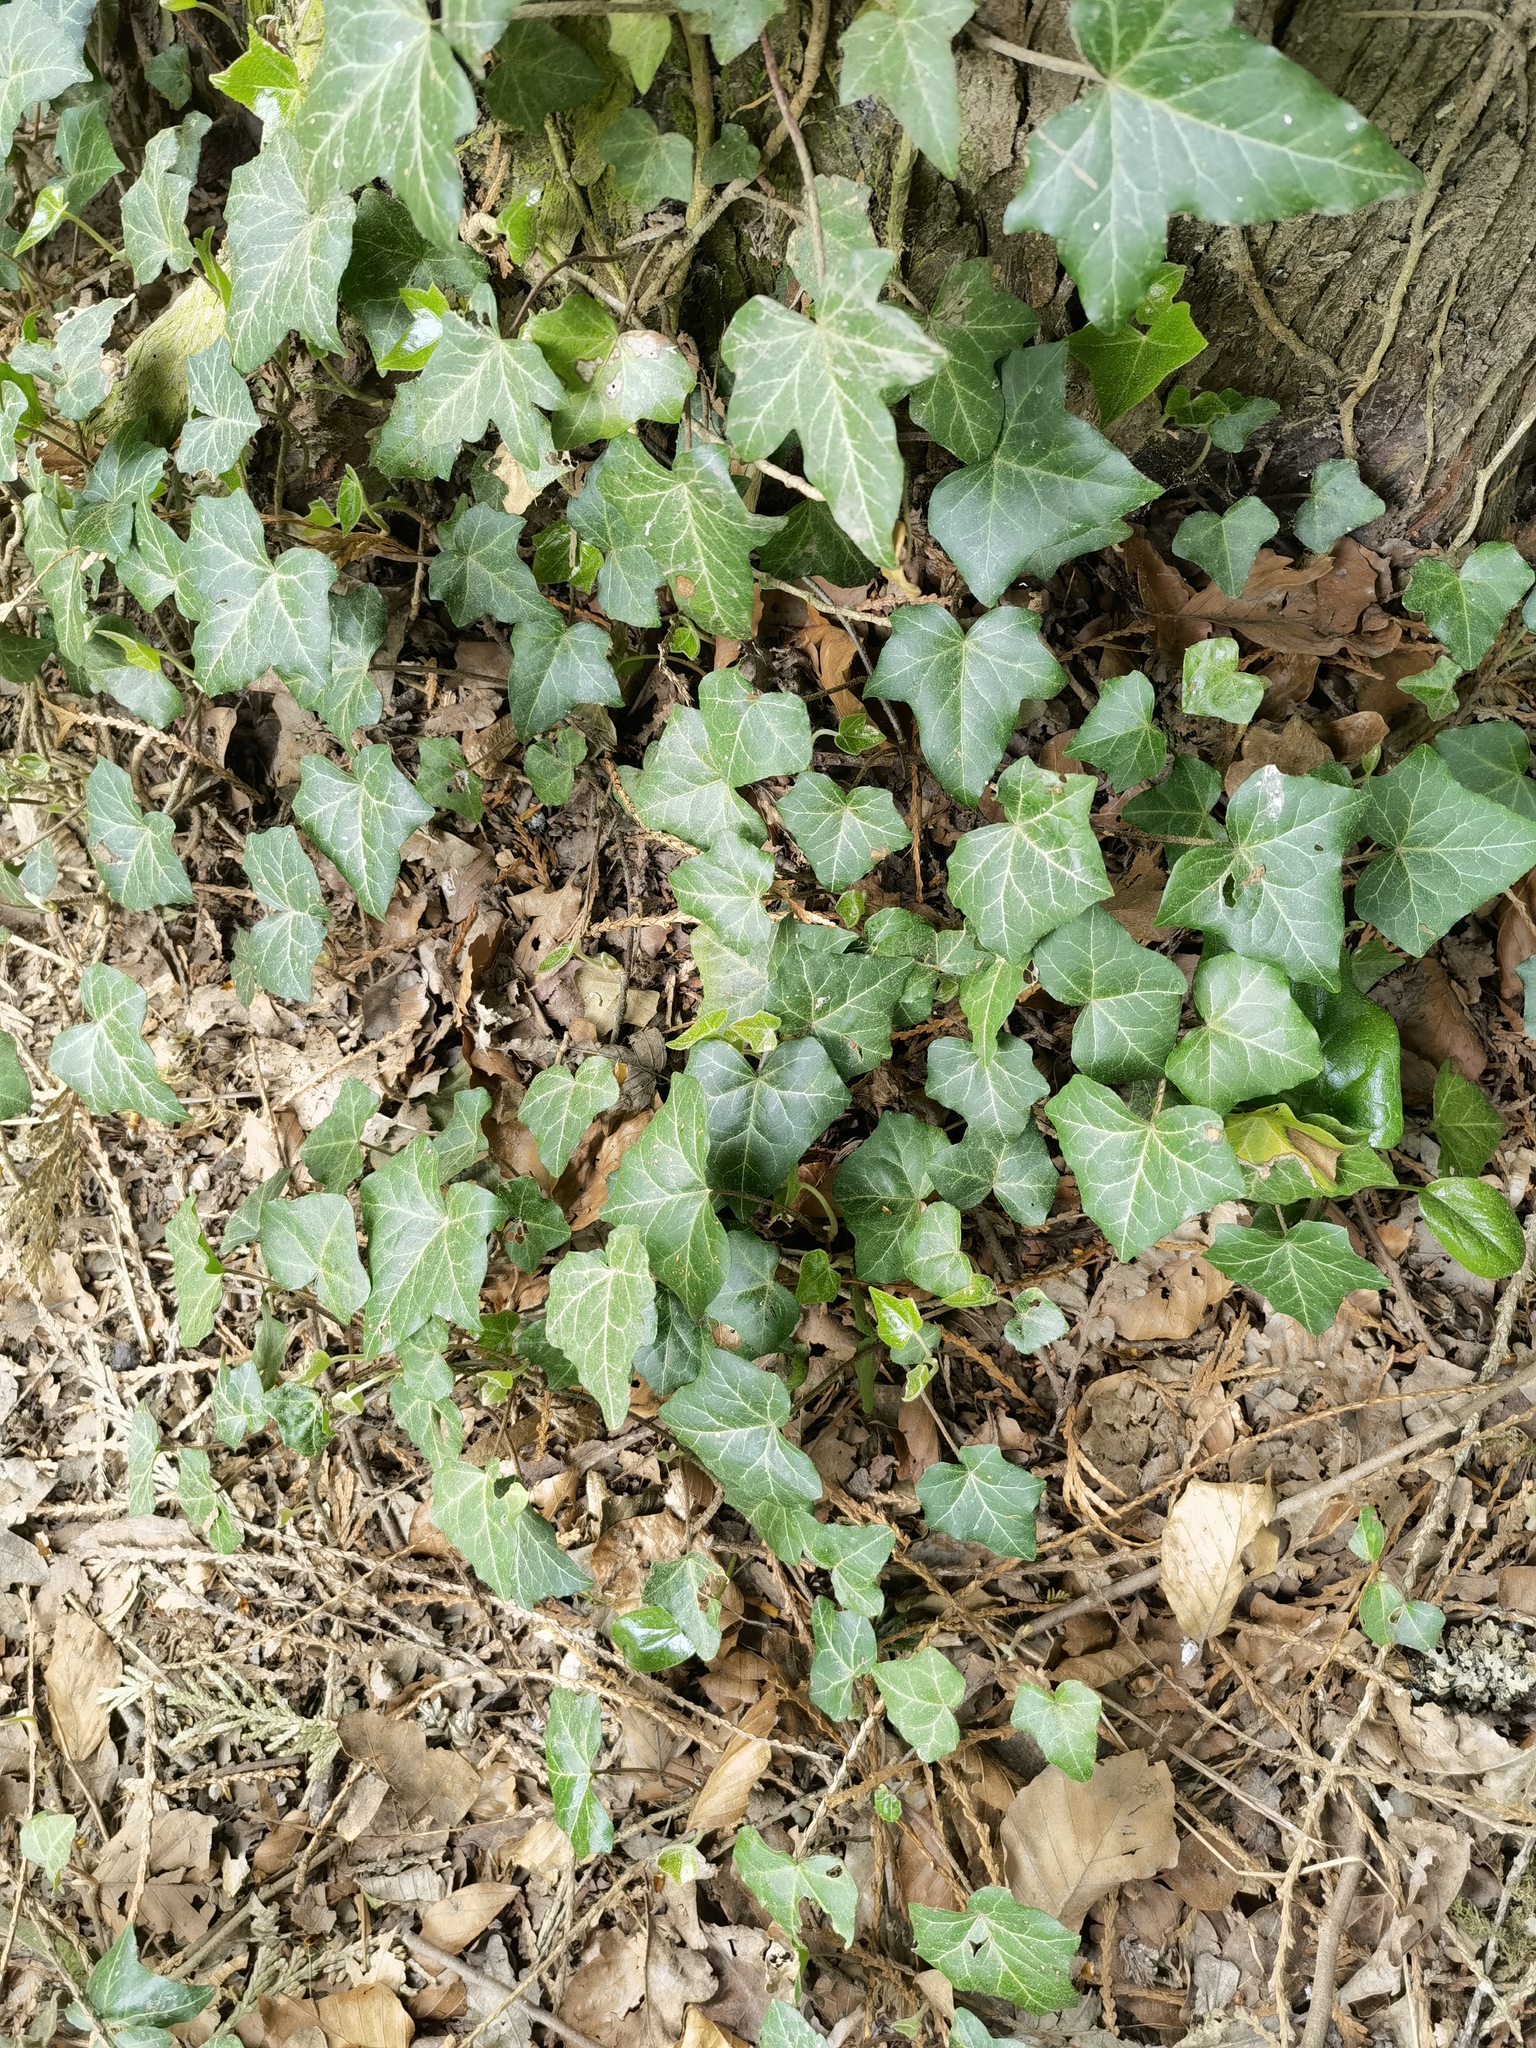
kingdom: Plantae
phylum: Tracheophyta
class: Magnoliopsida
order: Apiales
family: Araliaceae
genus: Hedera
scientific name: Hedera helix
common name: Ivy
